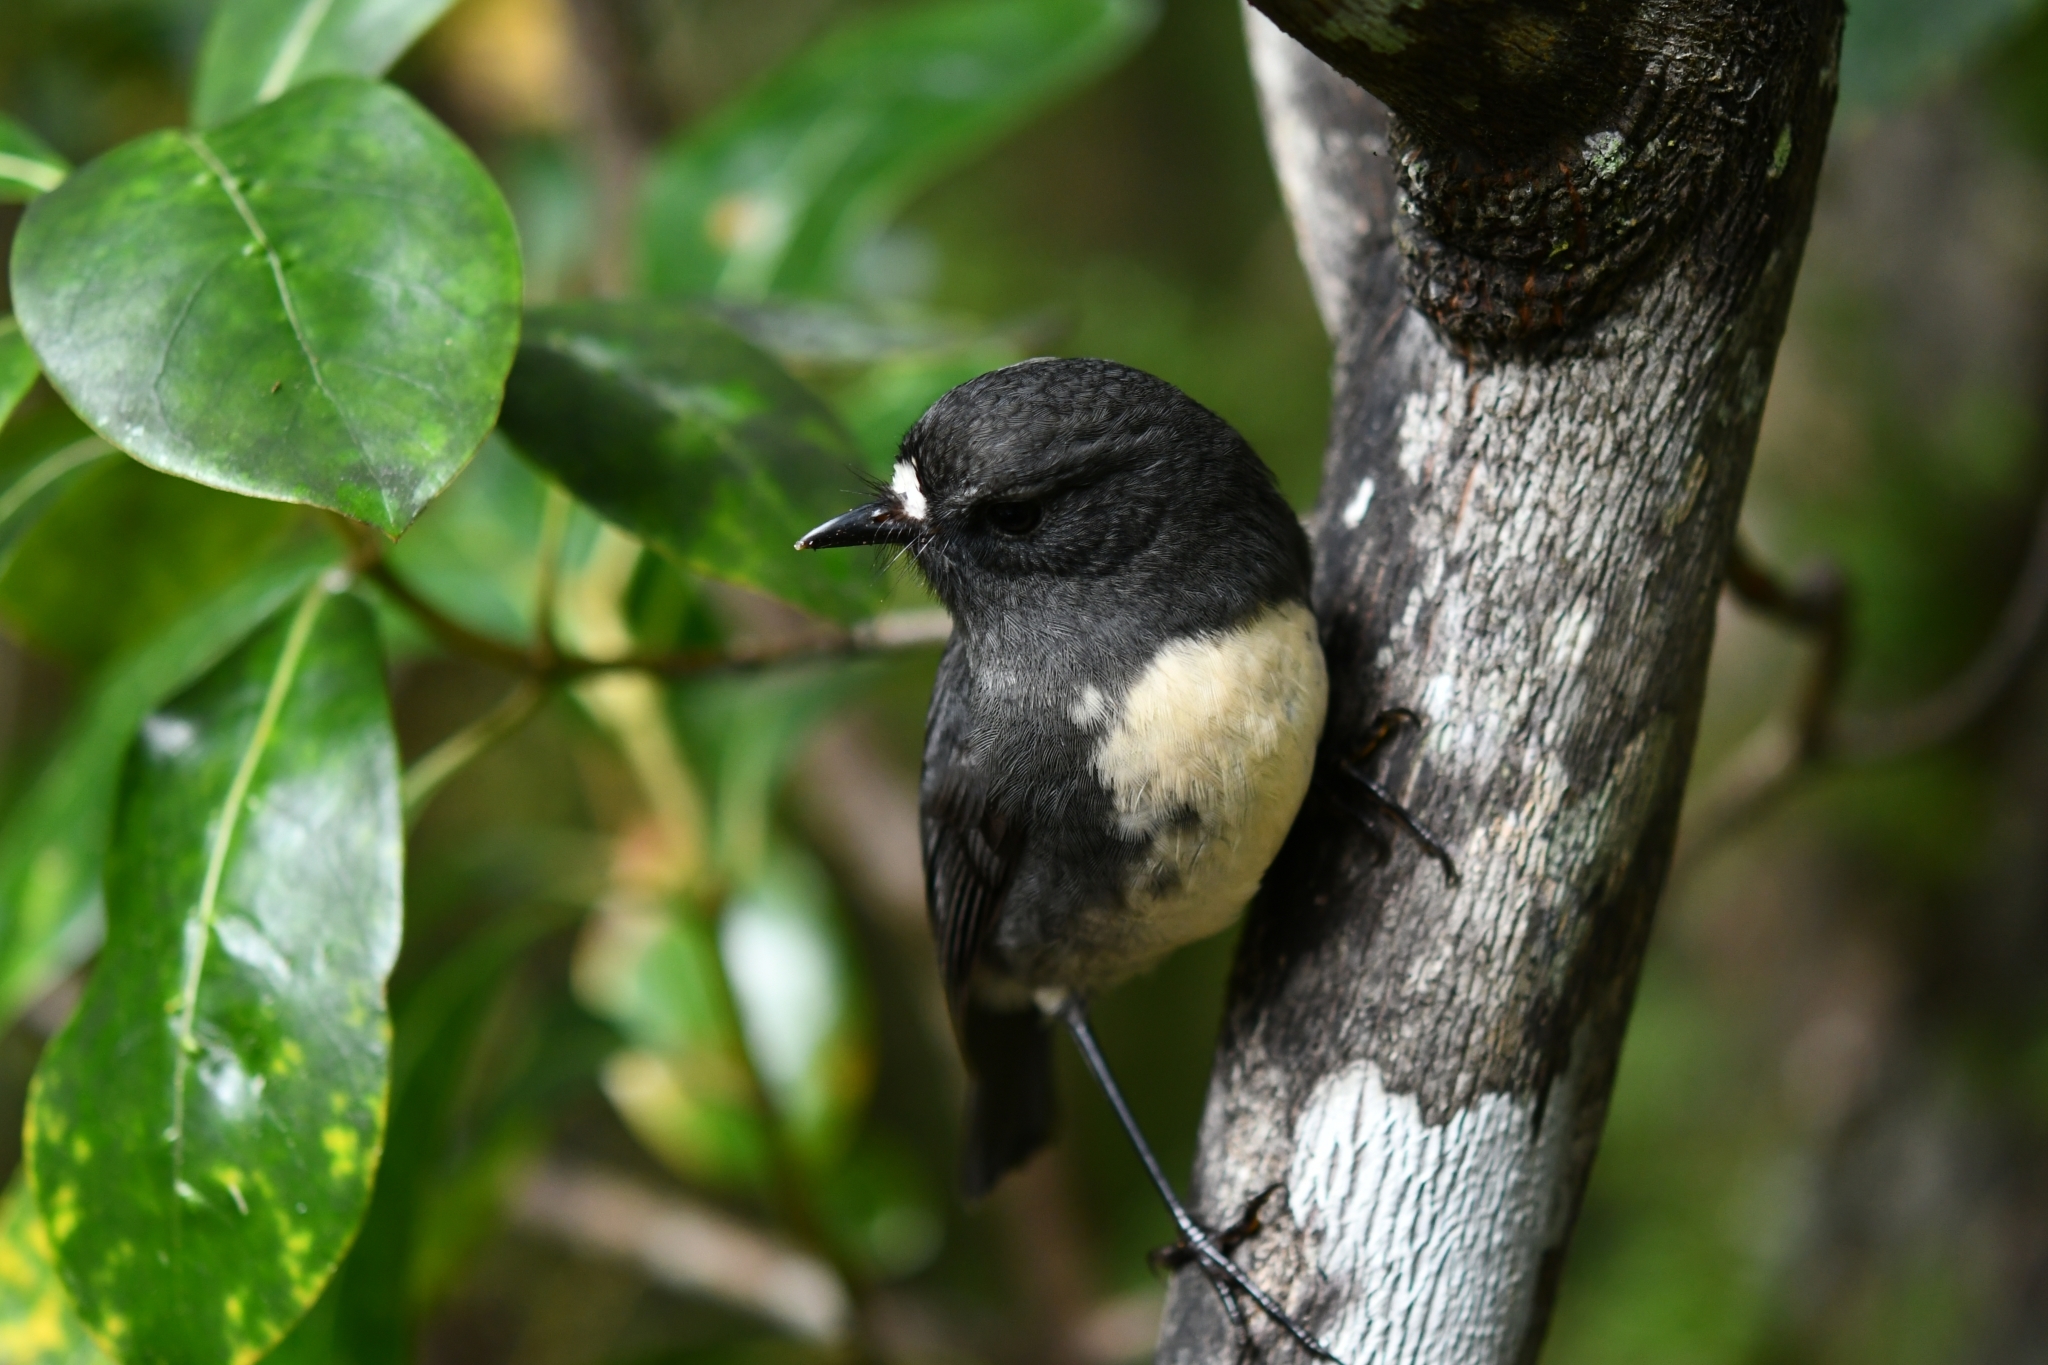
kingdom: Animalia
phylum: Chordata
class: Aves
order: Passeriformes
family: Petroicidae
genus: Petroica
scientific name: Petroica australis
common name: New zealand robin
